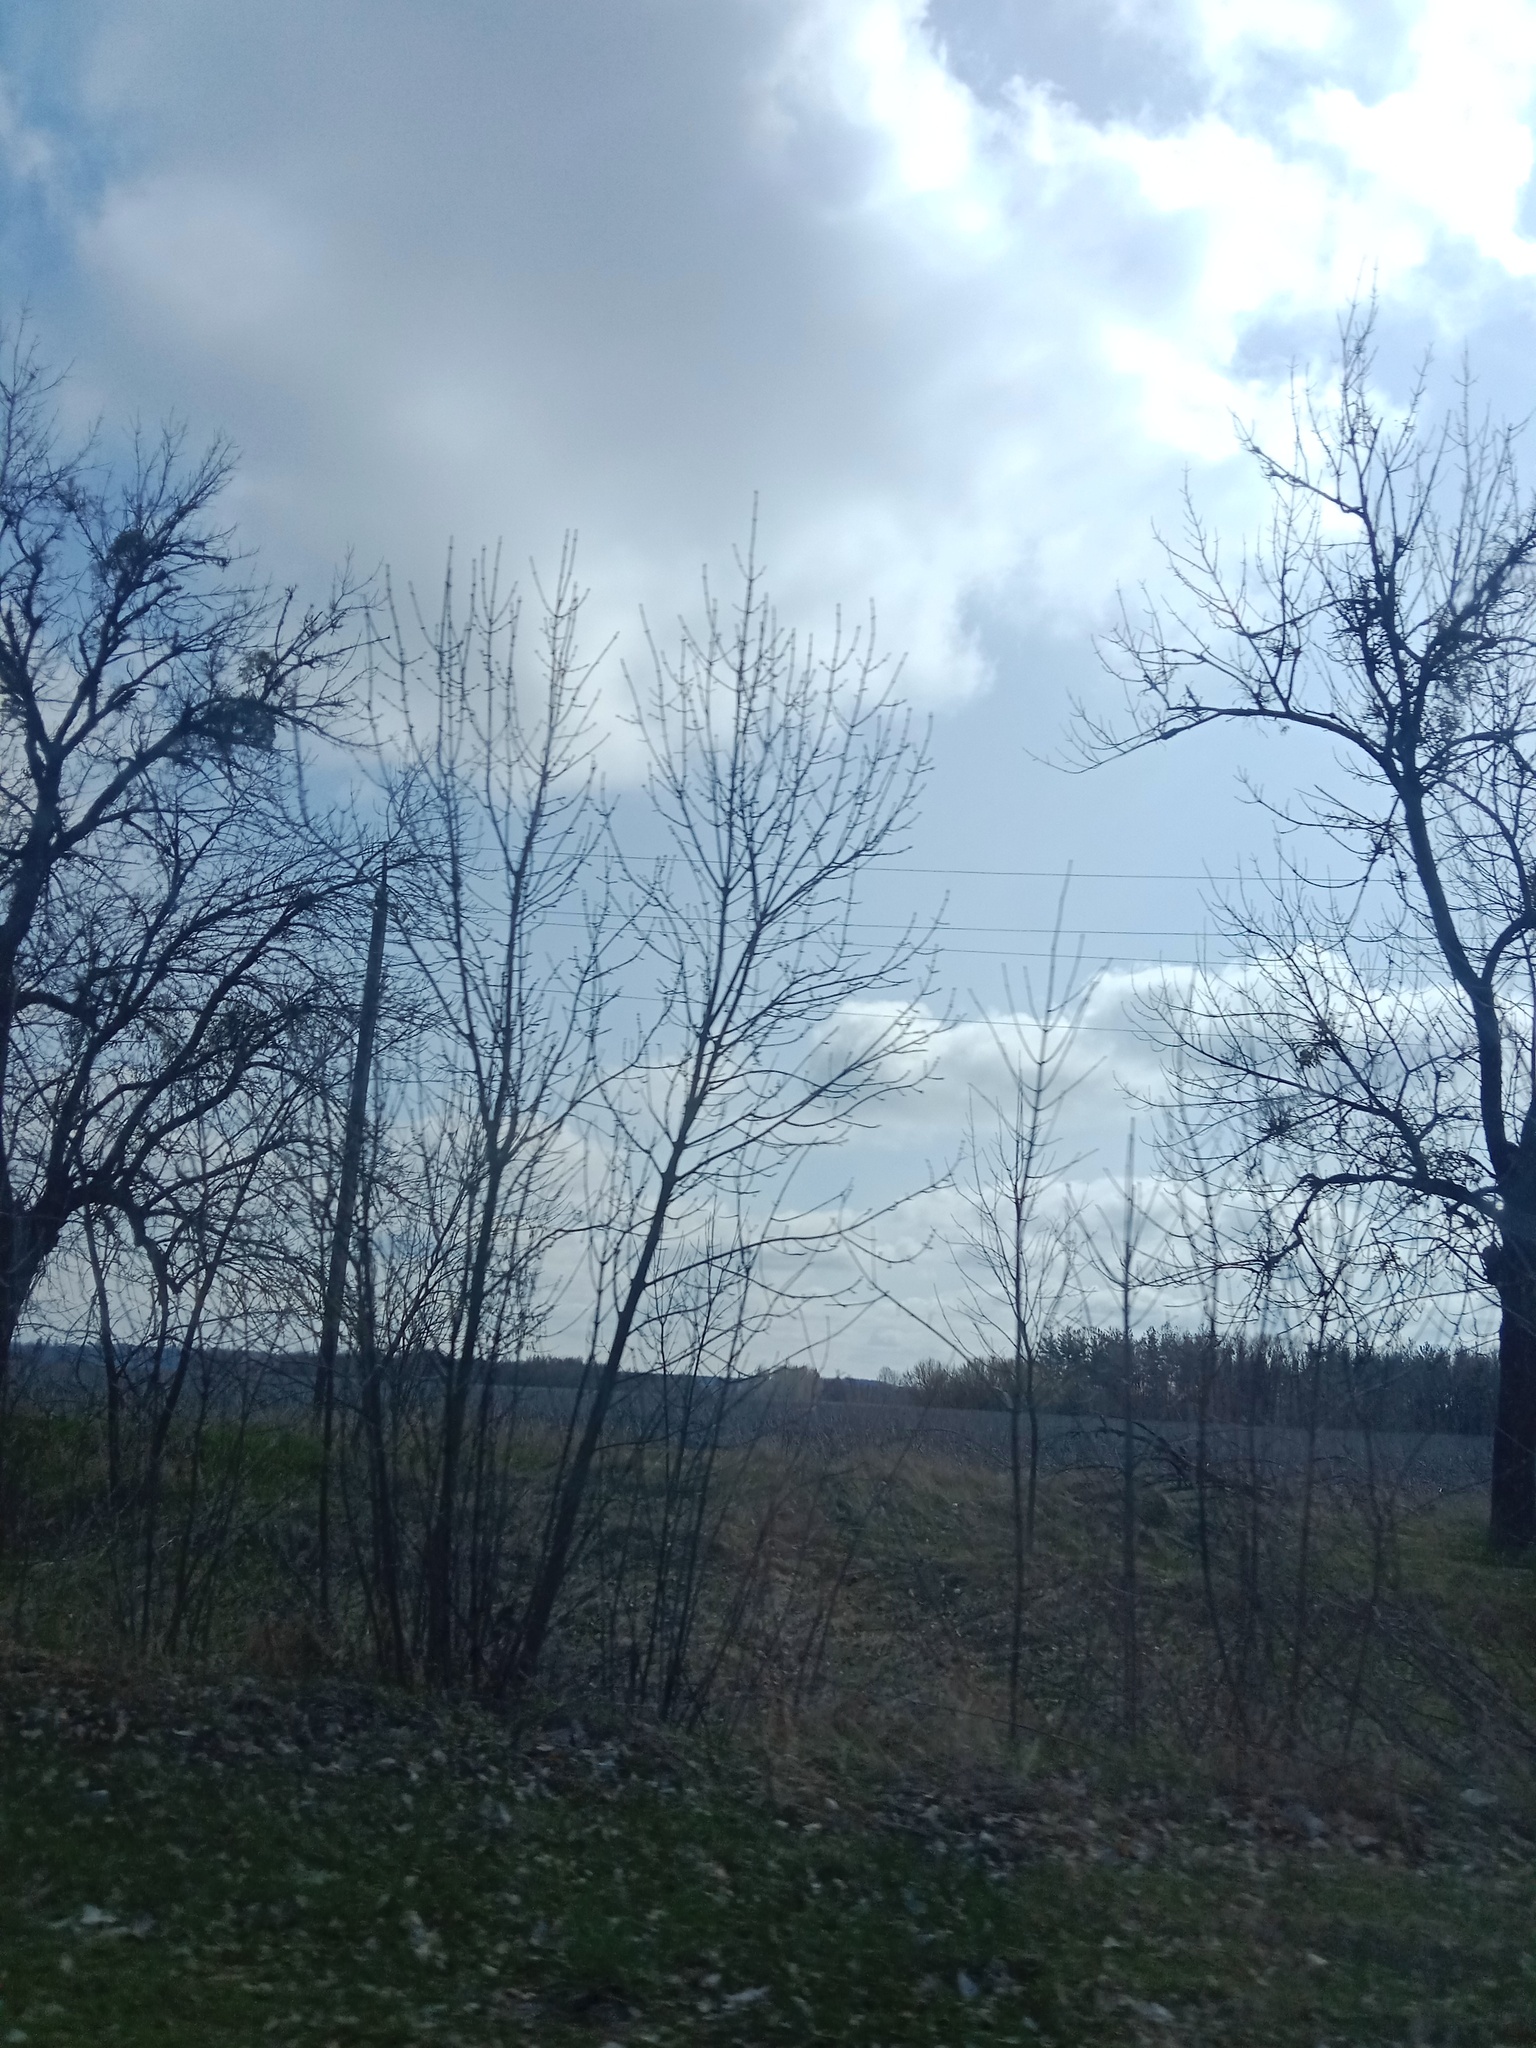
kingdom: Plantae
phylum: Tracheophyta
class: Magnoliopsida
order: Santalales
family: Viscaceae
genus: Viscum
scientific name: Viscum album
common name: Mistletoe
